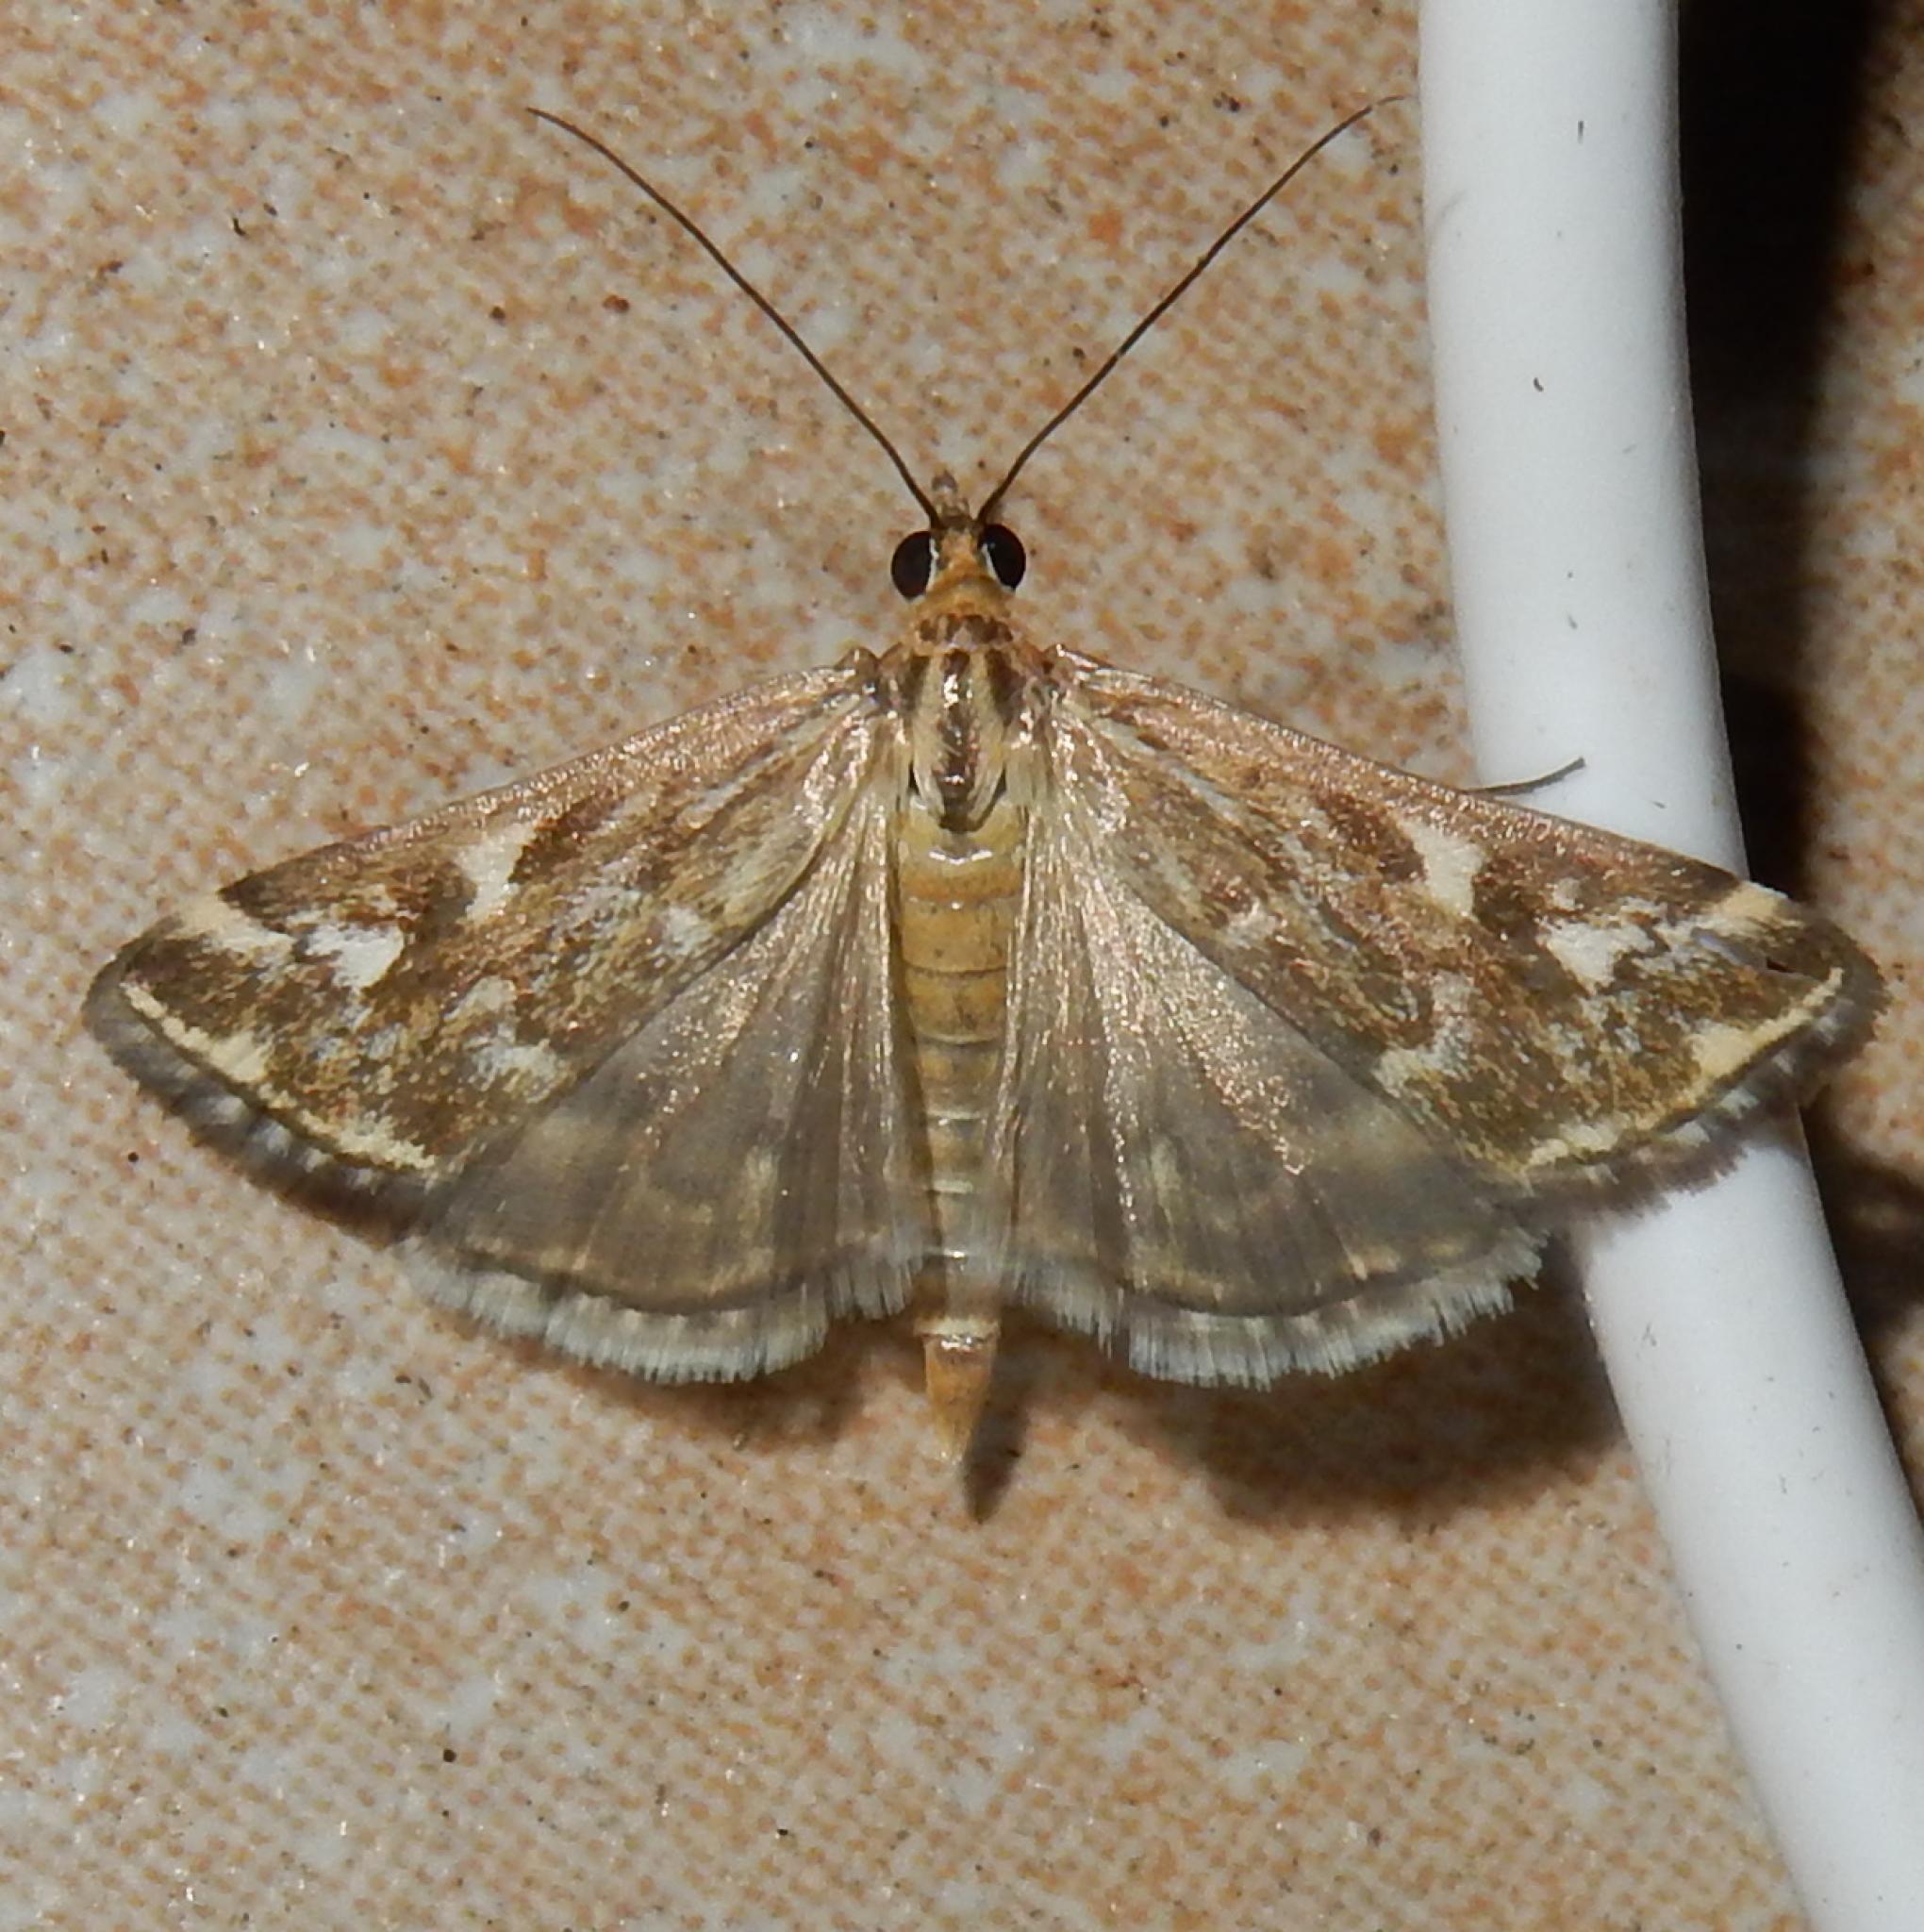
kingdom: Animalia
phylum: Arthropoda
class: Insecta
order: Lepidoptera
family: Crambidae
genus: Loxostege
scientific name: Loxostege frustalis
